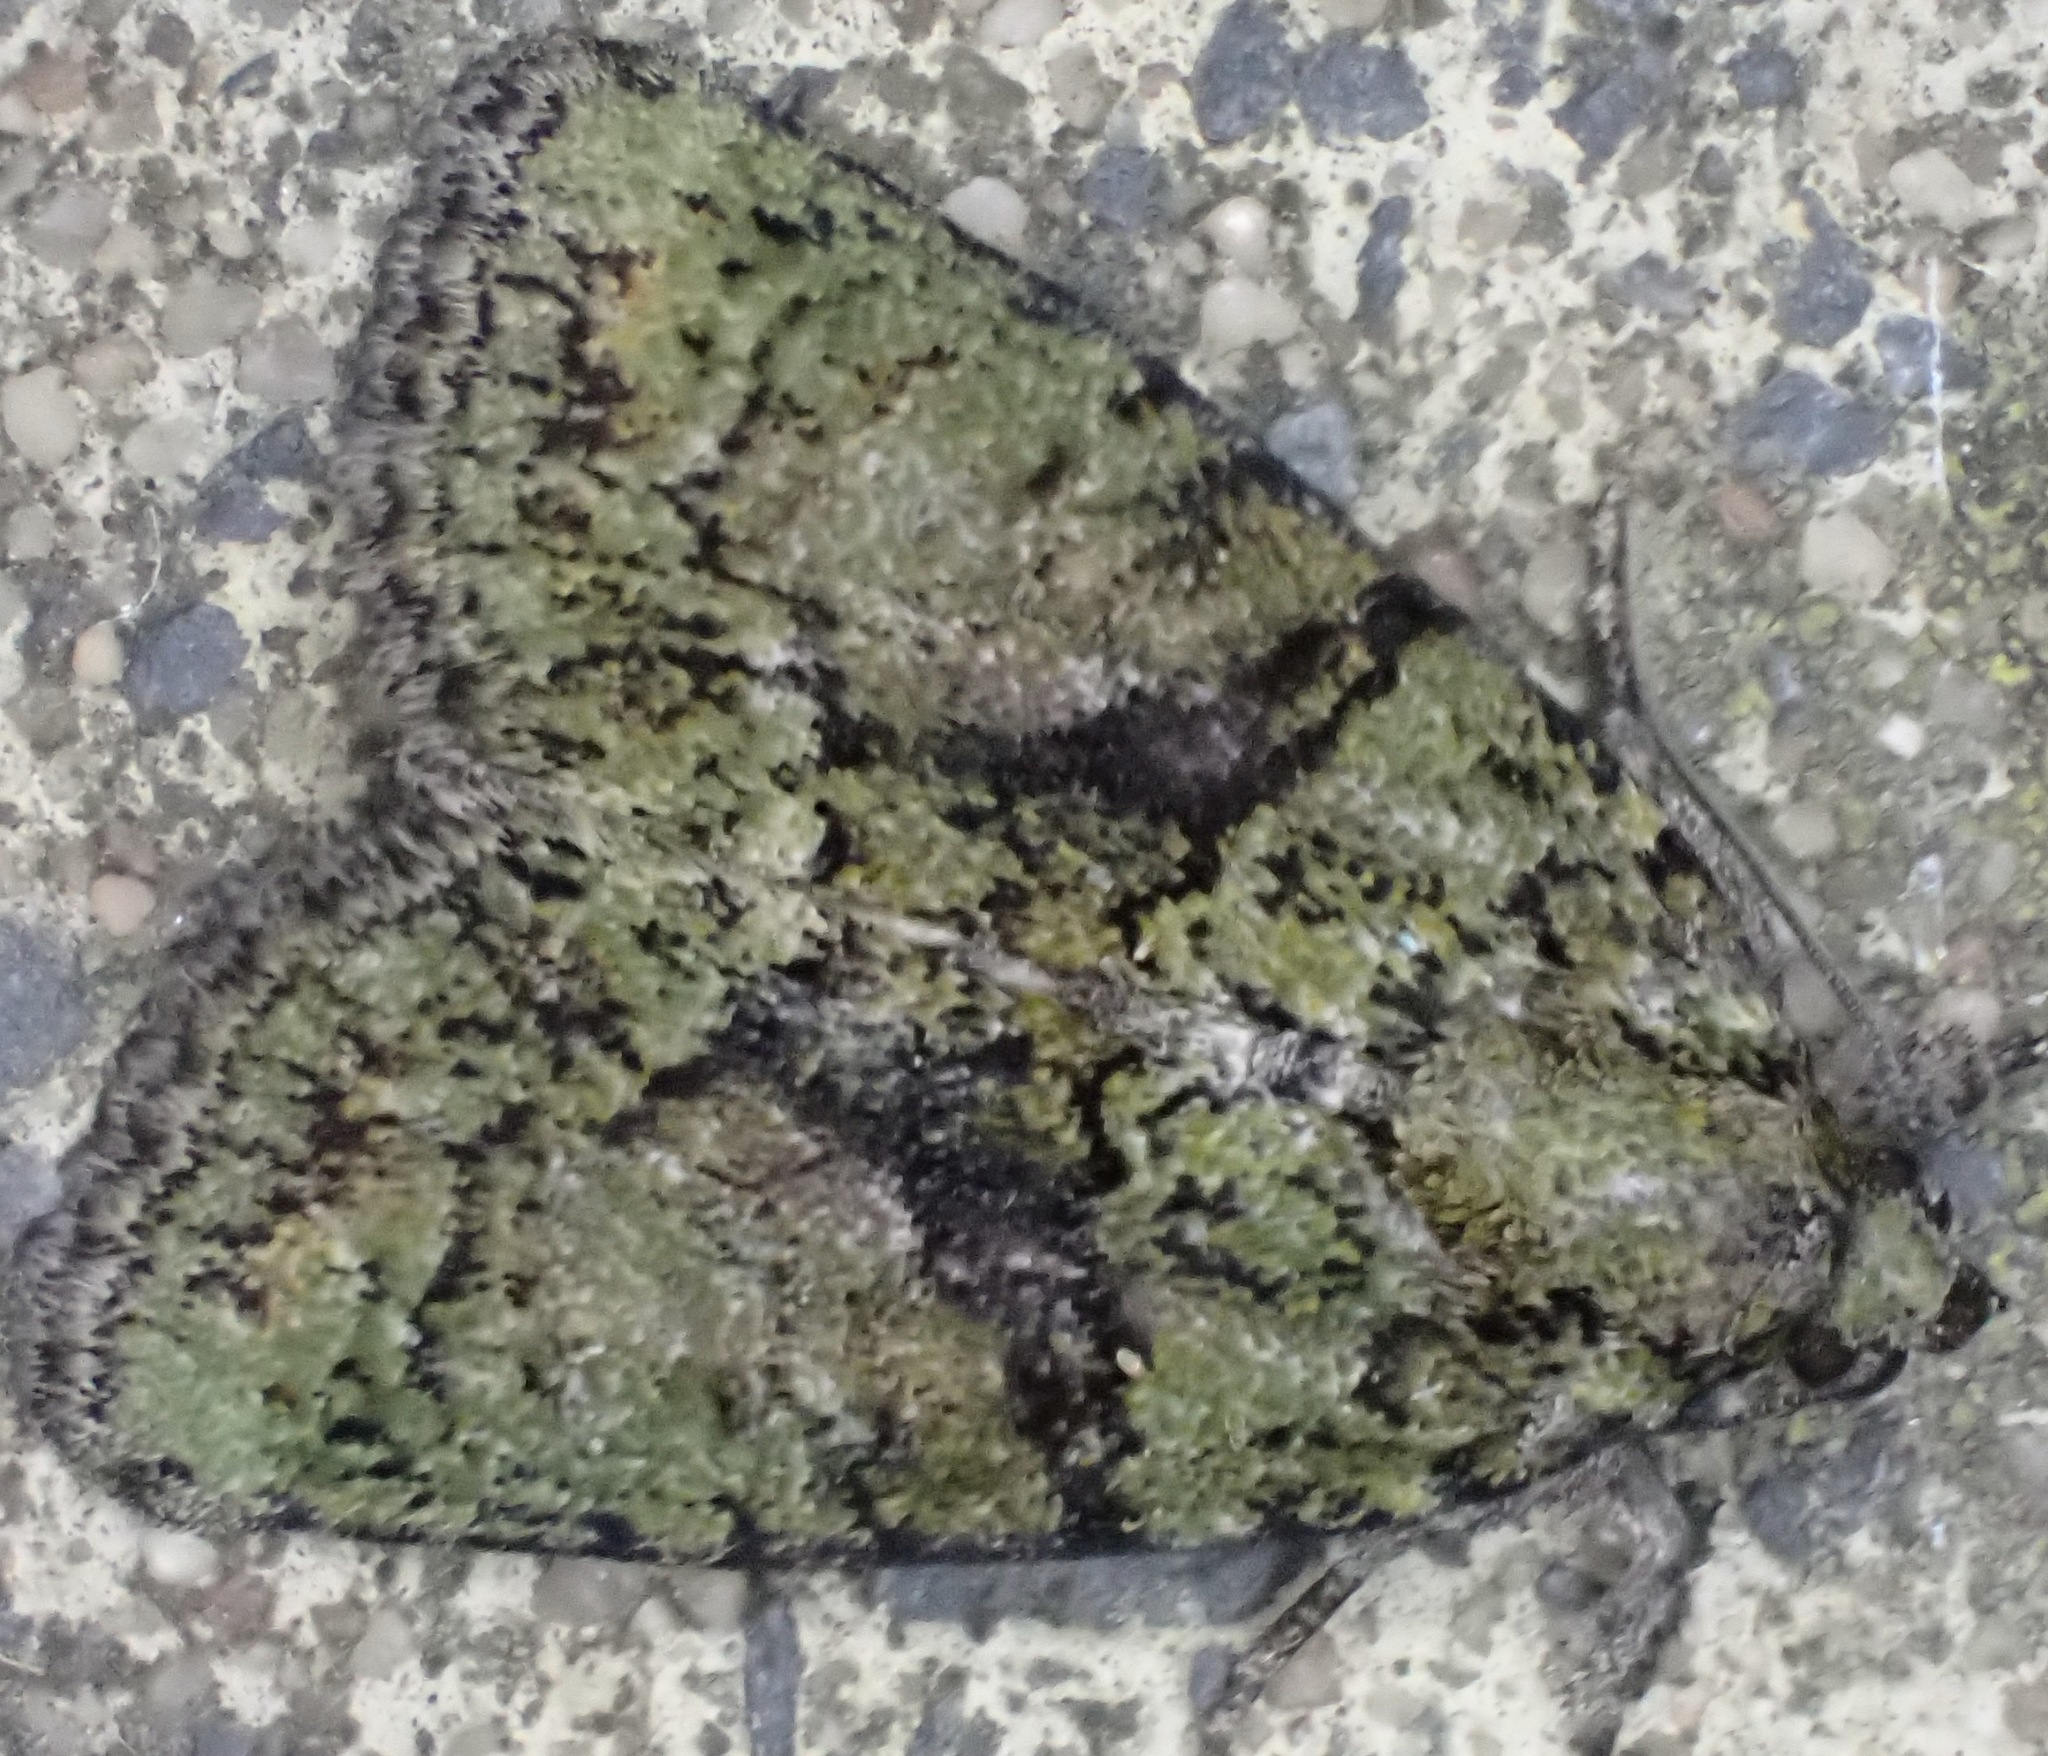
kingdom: Animalia
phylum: Arthropoda
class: Insecta
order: Lepidoptera
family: Noctuidae
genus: Cryphia
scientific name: Cryphia algae
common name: Tree-lichen beauty
